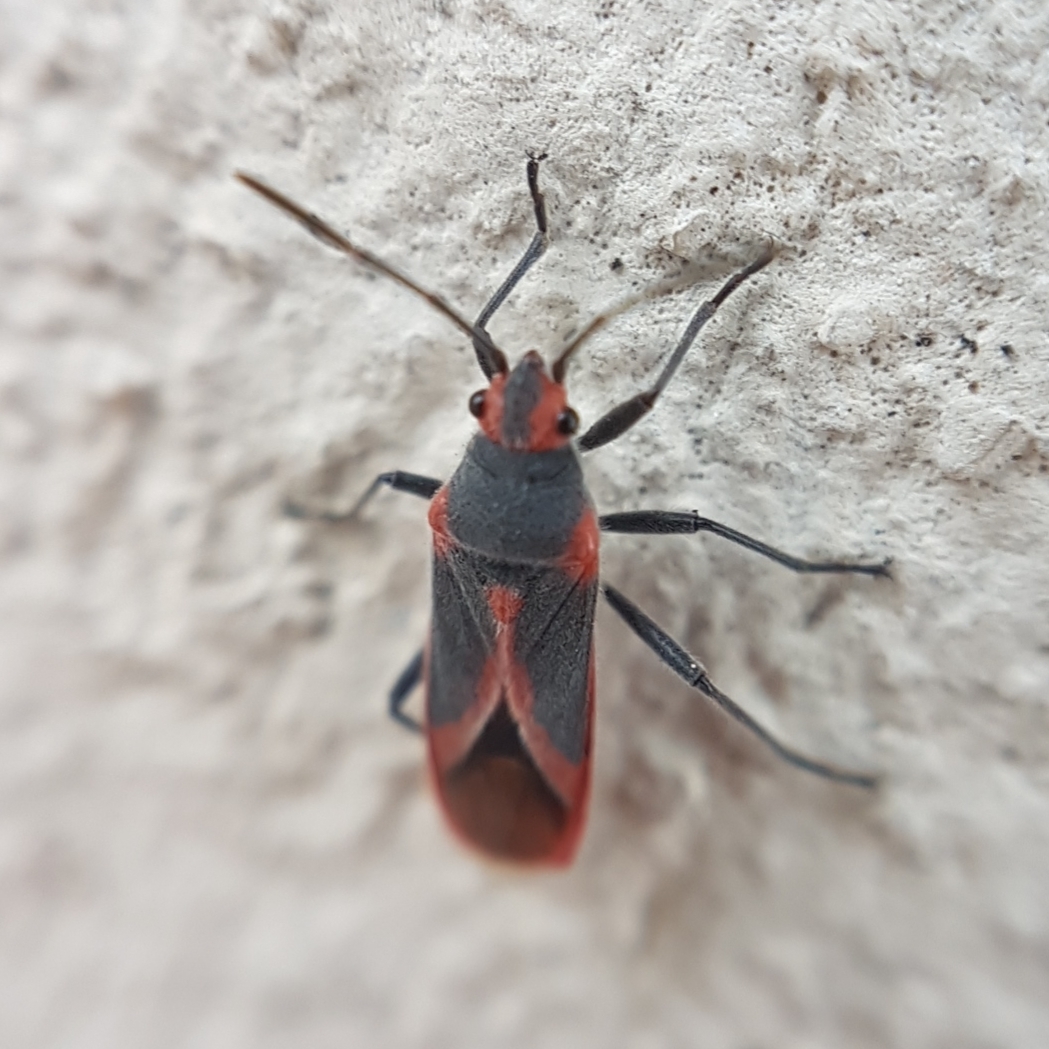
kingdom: Animalia
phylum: Arthropoda
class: Insecta
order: Hemiptera
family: Lygaeidae
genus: Caenocoris
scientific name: Caenocoris nerii
